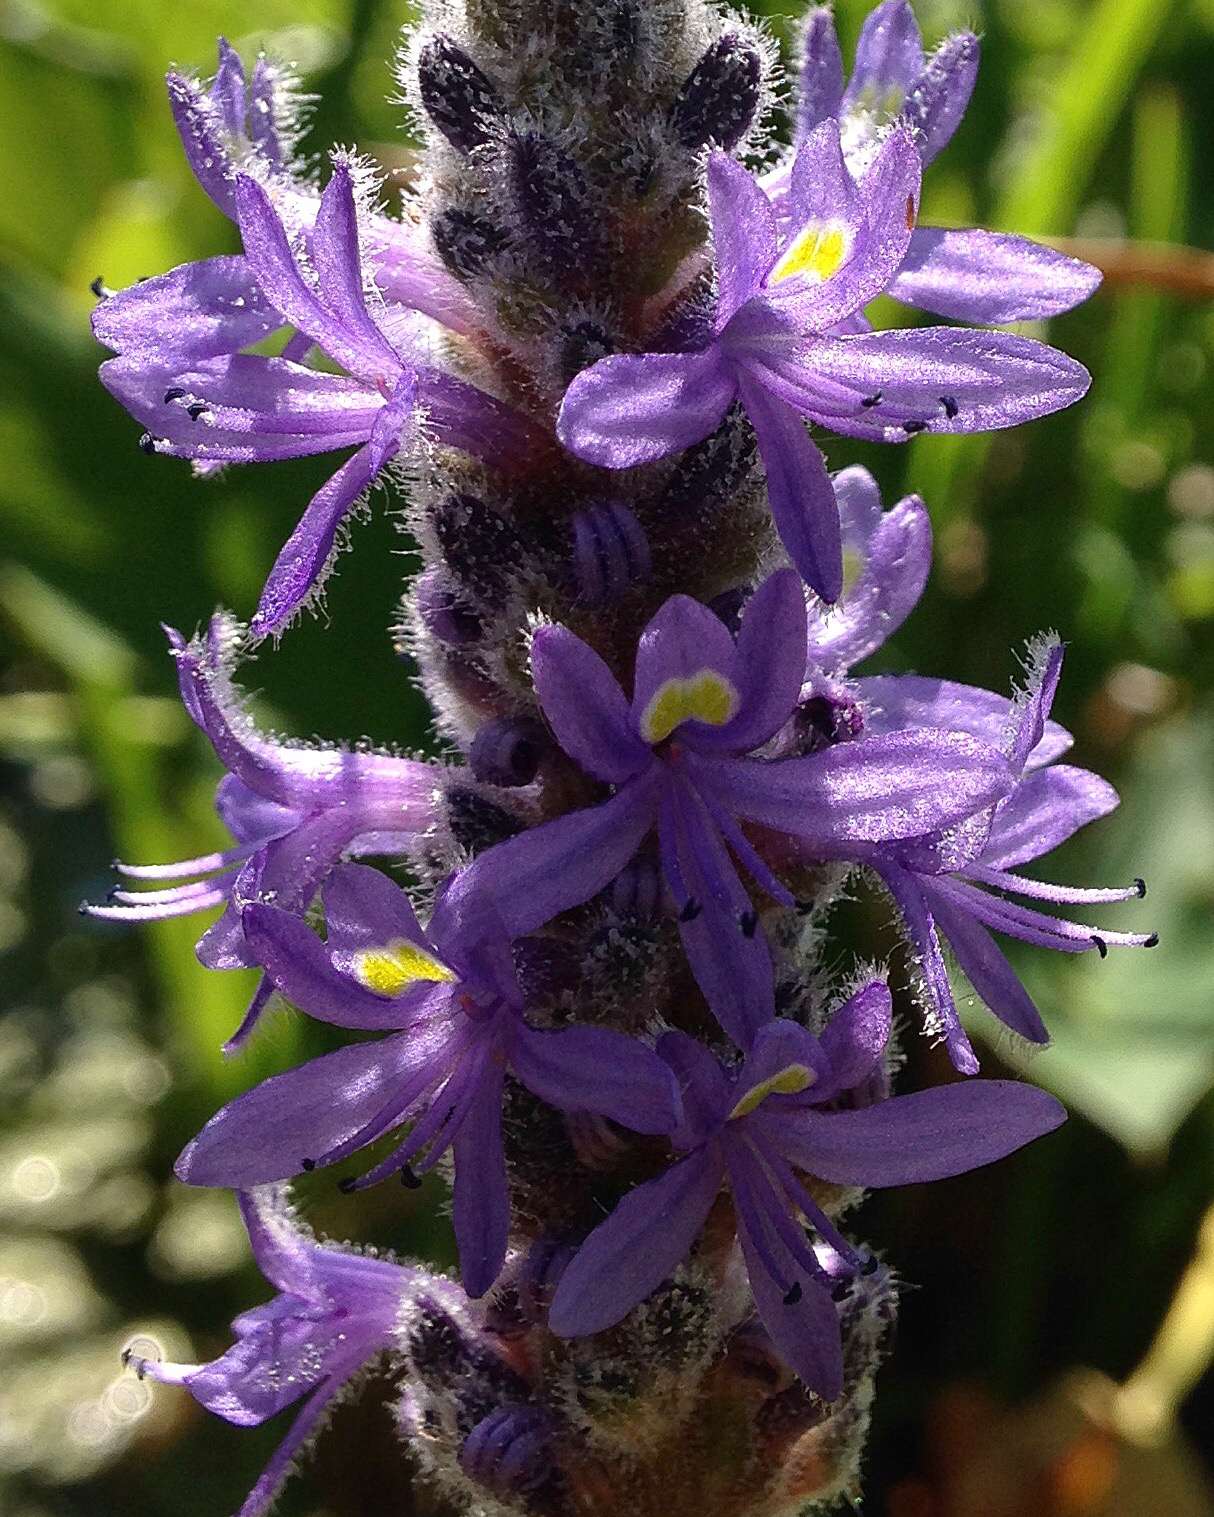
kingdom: Plantae
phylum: Tracheophyta
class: Liliopsida
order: Commelinales
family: Pontederiaceae
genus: Pontederia
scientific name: Pontederia cordata
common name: Pickerelweed
